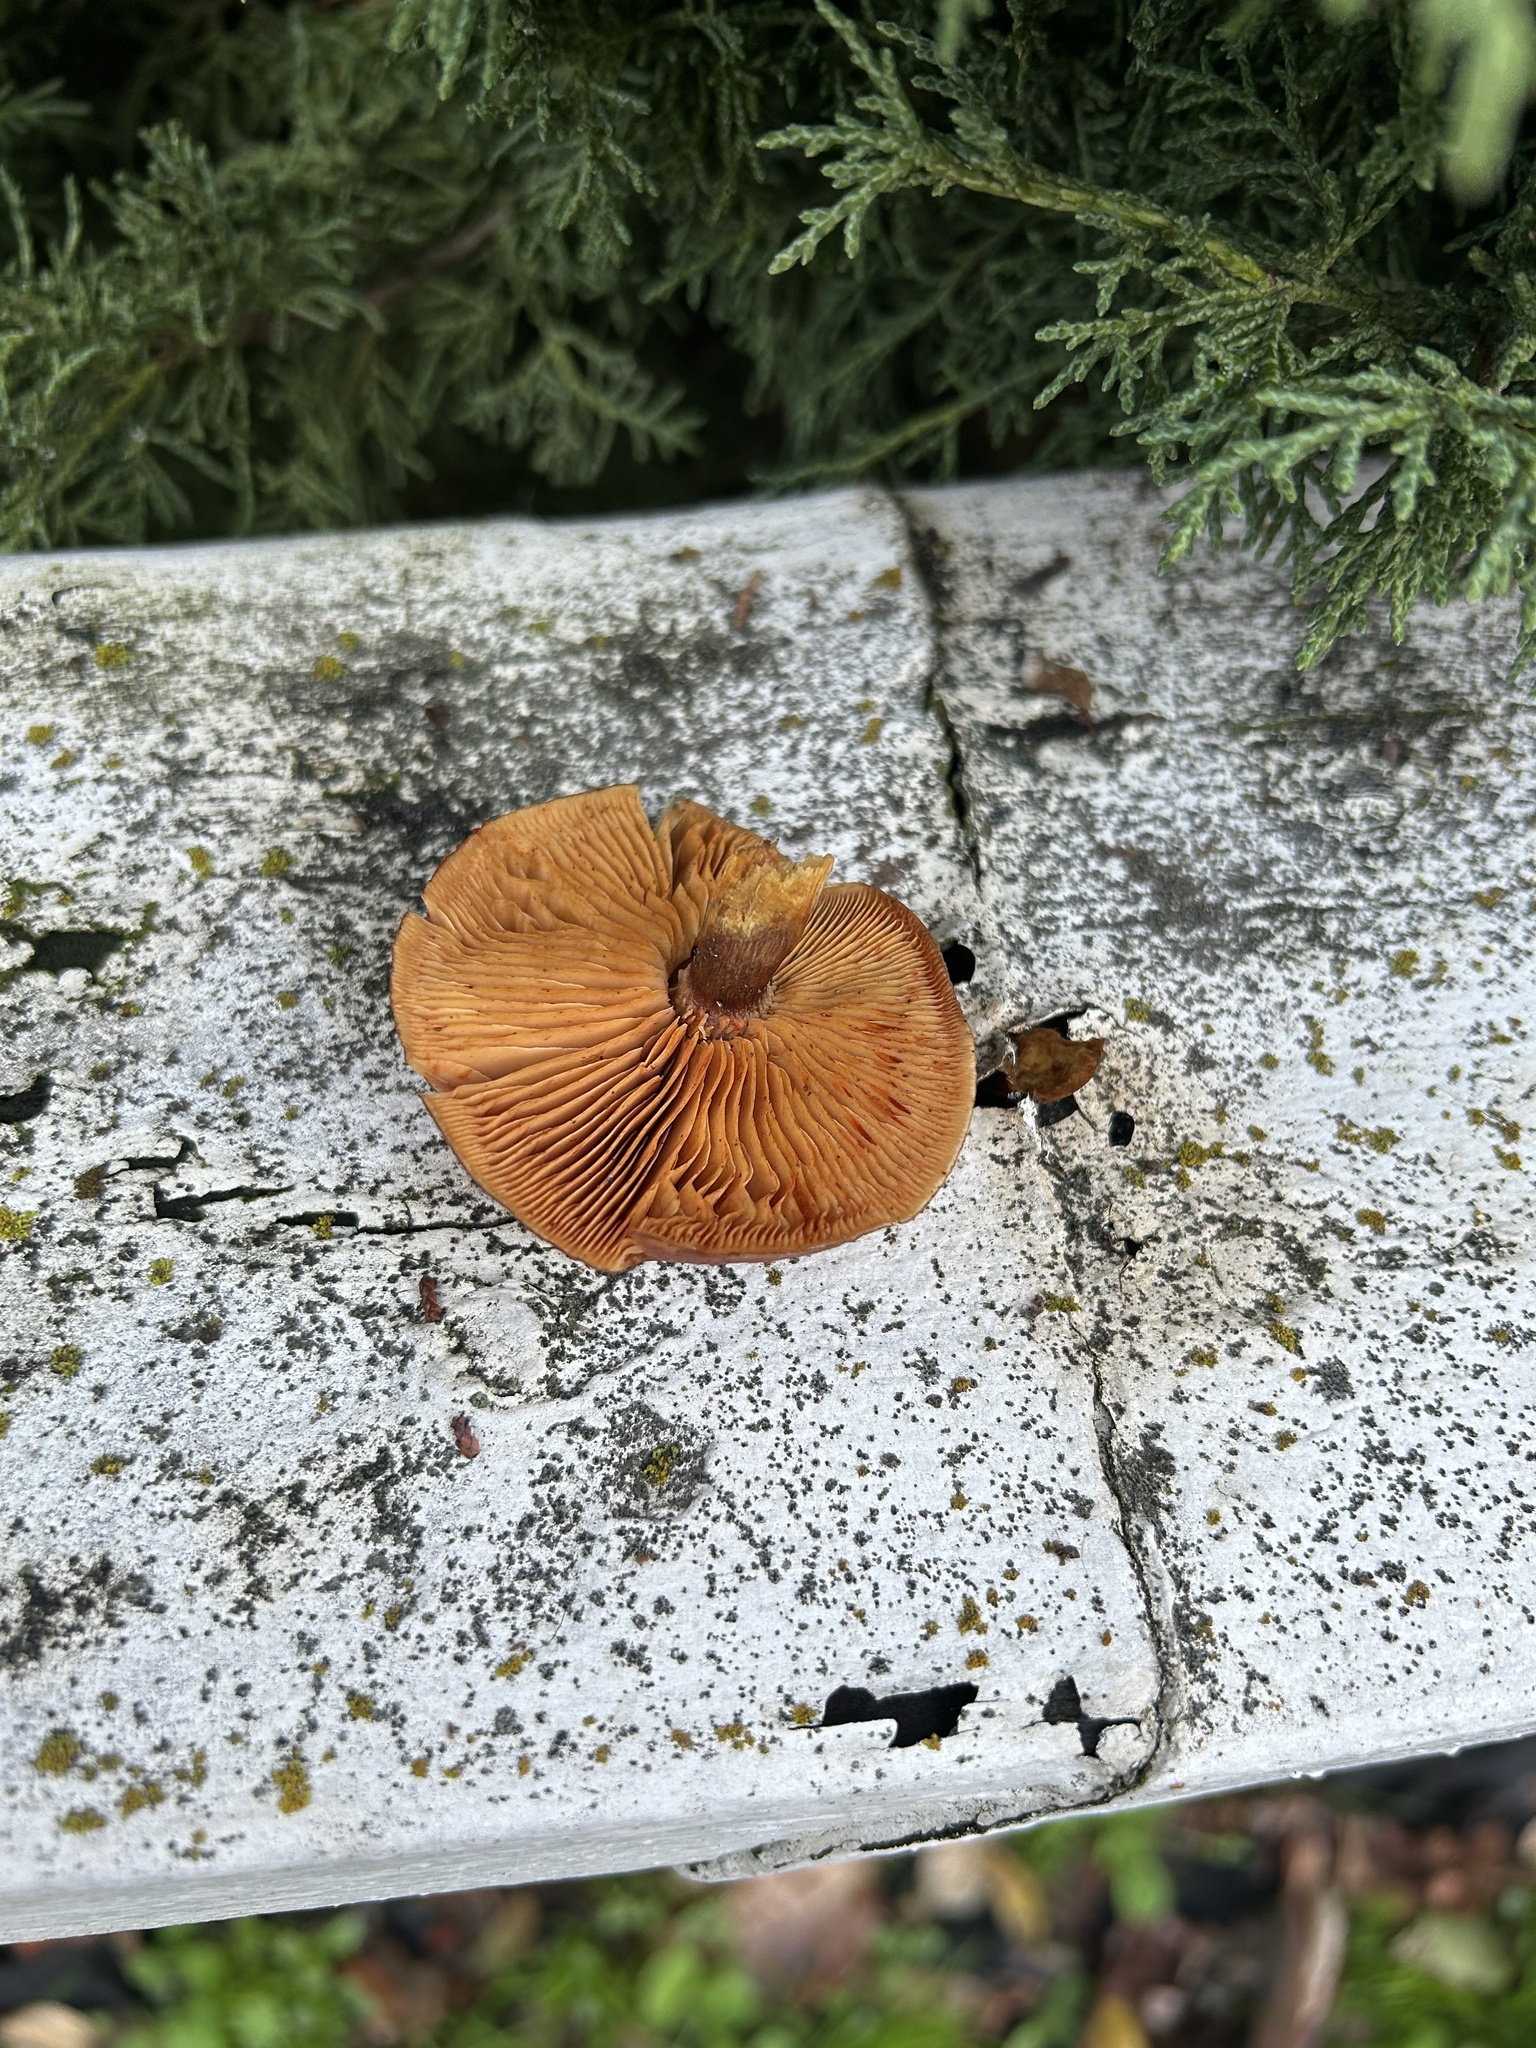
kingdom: Fungi
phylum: Basidiomycota
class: Agaricomycetes
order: Agaricales
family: Hymenogastraceae
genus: Gymnopilus
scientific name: Gymnopilus luteofolius
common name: Yellow-gilled gymnopilus
